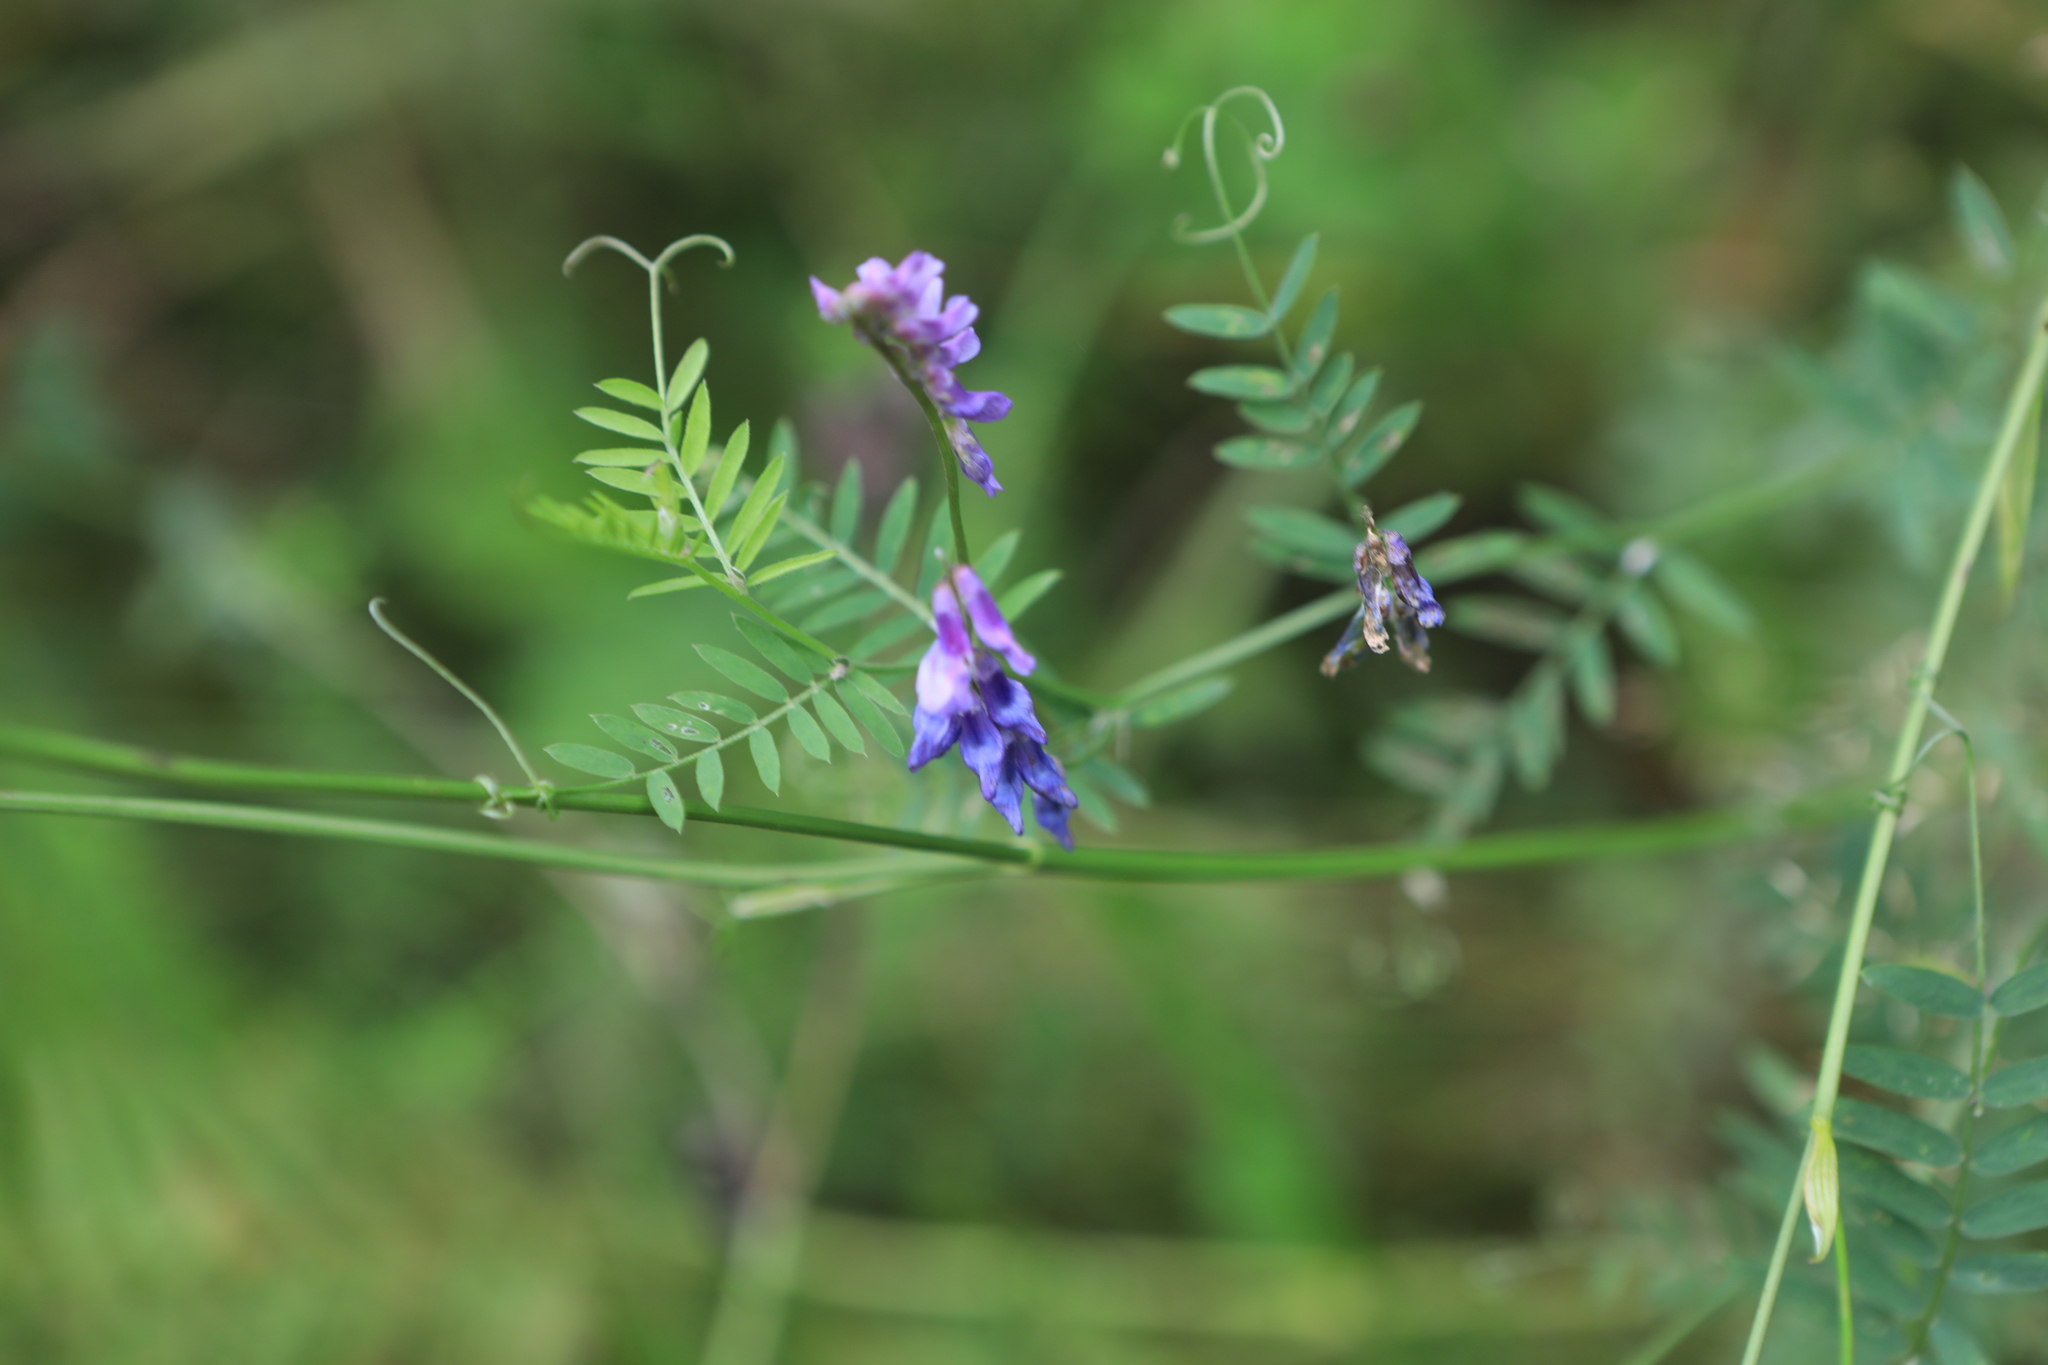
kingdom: Plantae
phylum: Tracheophyta
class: Magnoliopsida
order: Fabales
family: Fabaceae
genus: Vicia
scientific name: Vicia cracca
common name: Bird vetch
